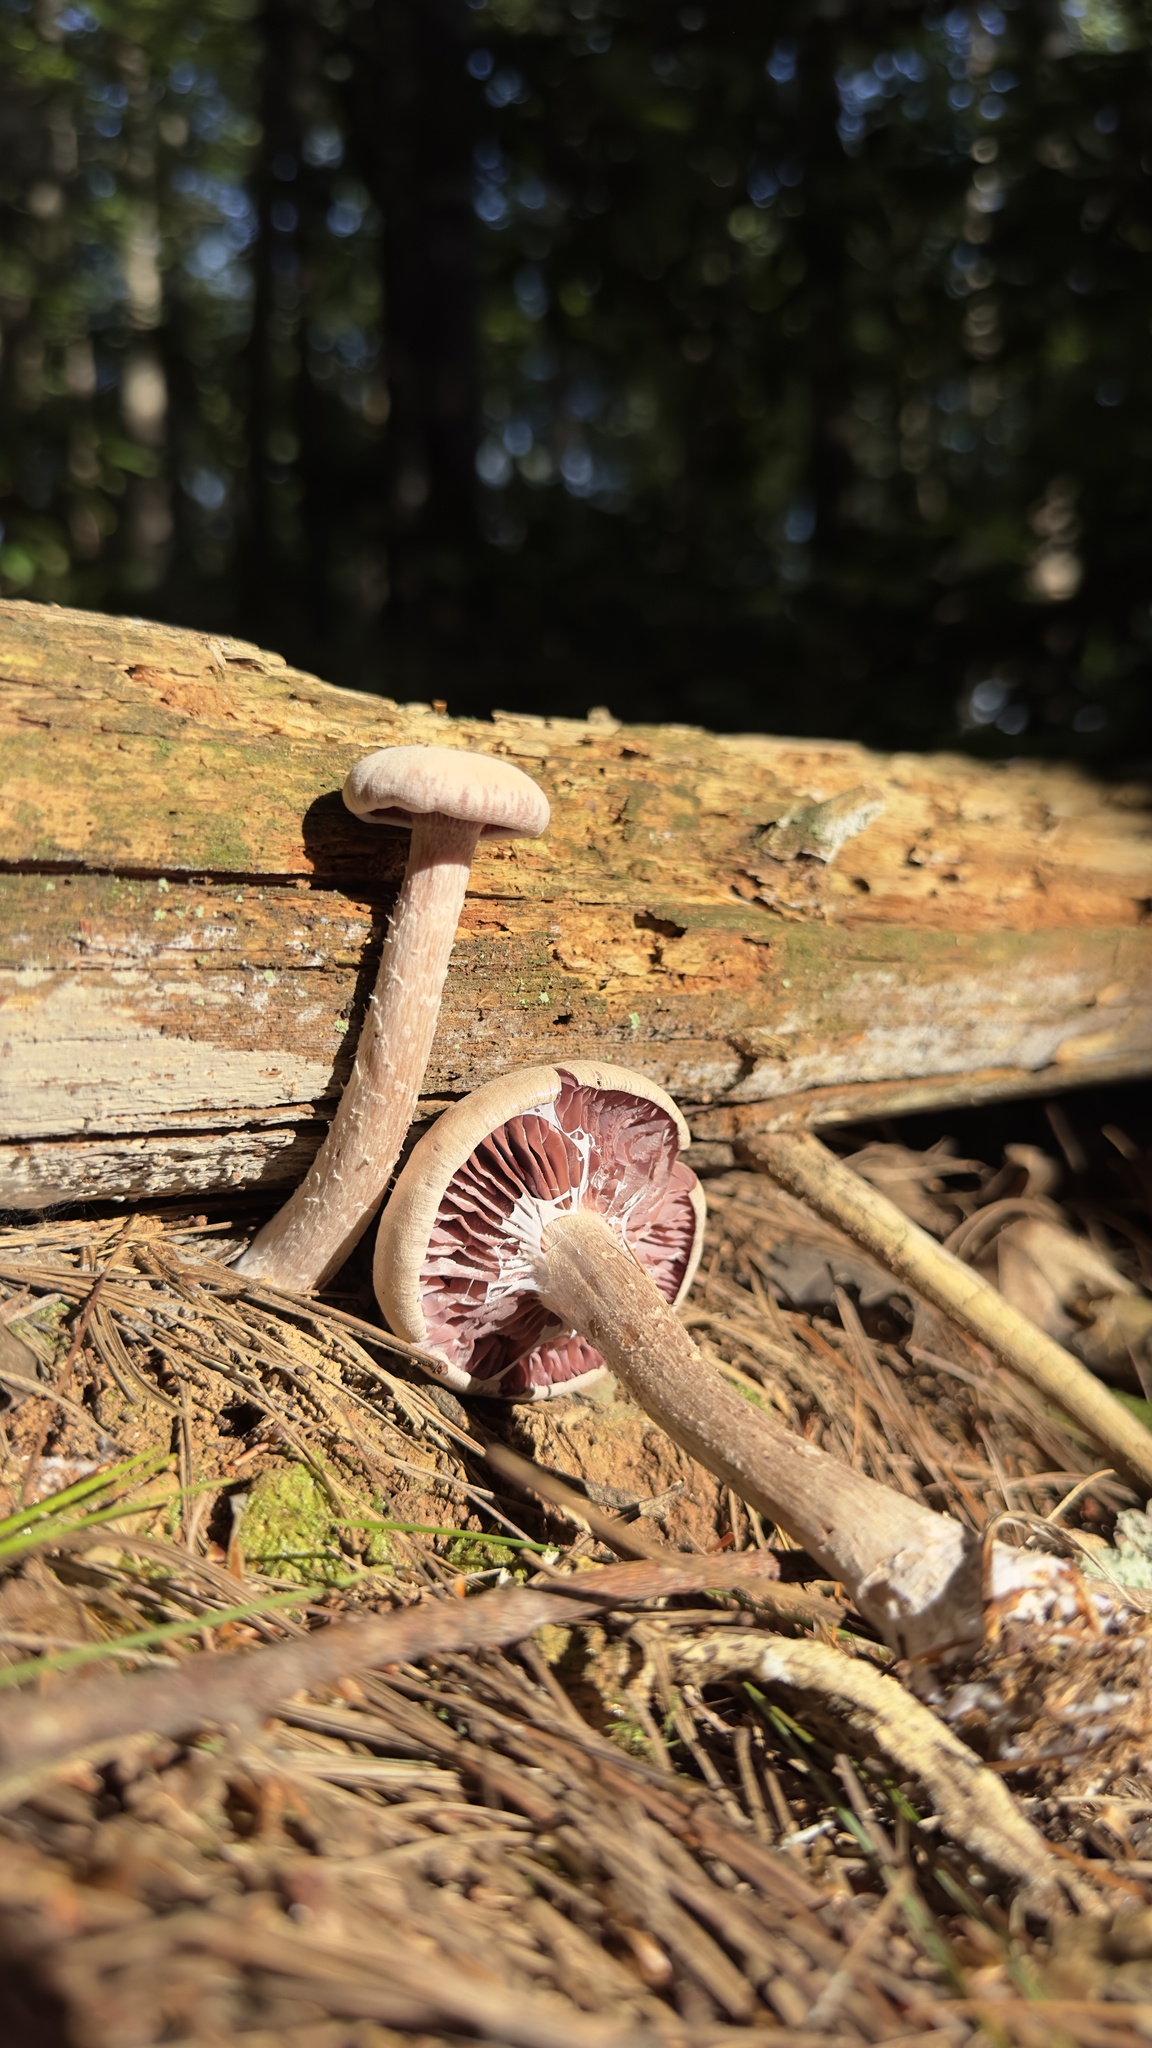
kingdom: Fungi
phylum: Basidiomycota
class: Agaricomycetes
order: Agaricales
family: Hydnangiaceae
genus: Laccaria
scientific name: Laccaria ochropurpurea
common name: Purple laccaria
